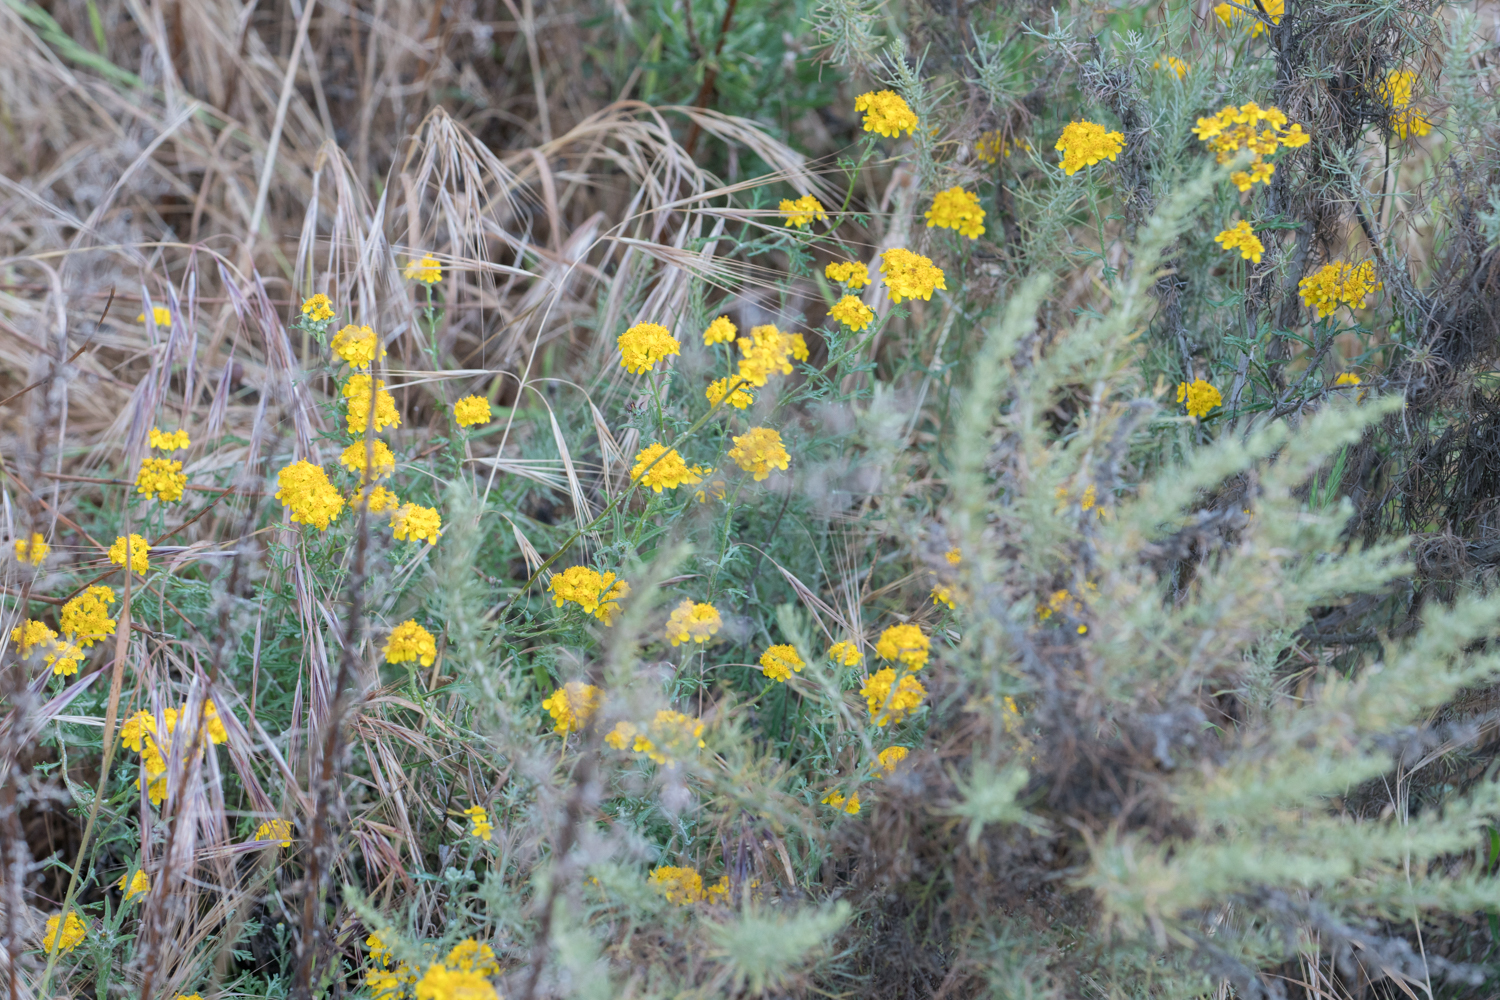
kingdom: Plantae
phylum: Tracheophyta
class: Magnoliopsida
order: Asterales
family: Asteraceae
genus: Eriophyllum
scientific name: Eriophyllum confertiflorum
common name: Golden-yarrow
